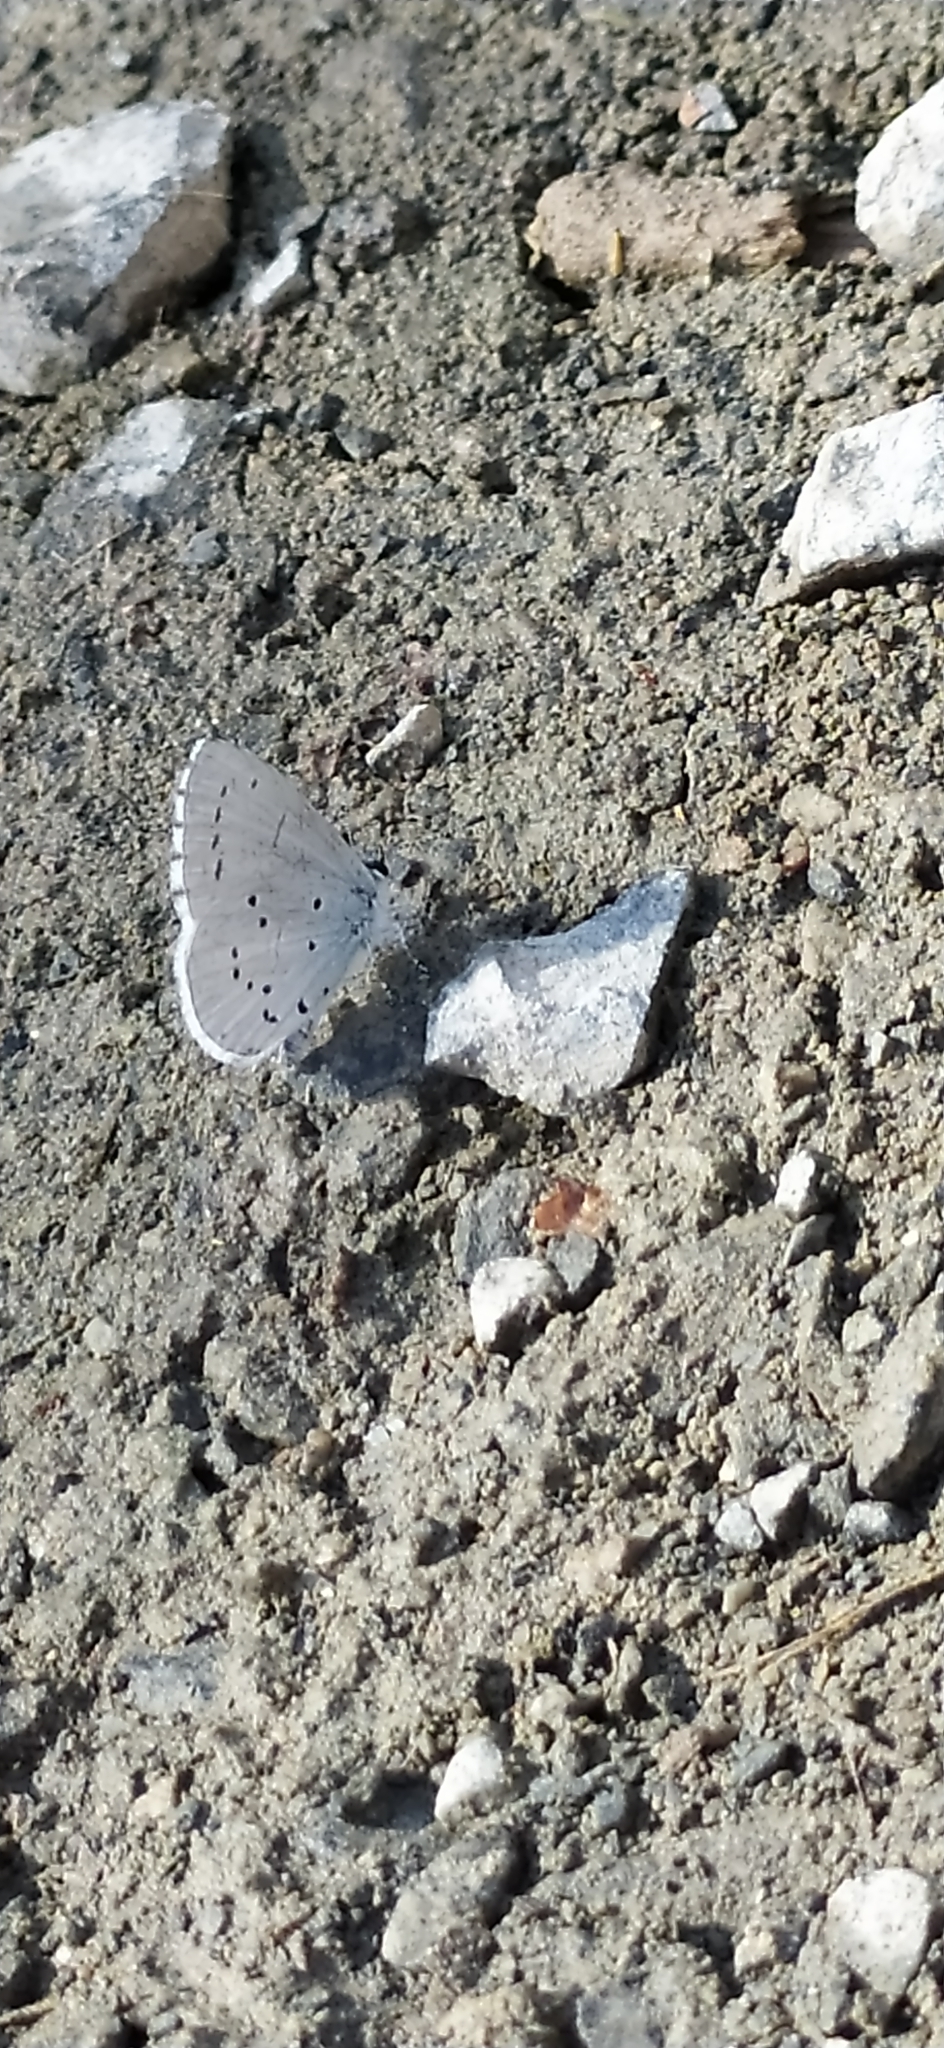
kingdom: Animalia
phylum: Arthropoda
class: Insecta
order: Lepidoptera
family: Lycaenidae
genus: Celastrina
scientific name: Celastrina argiolus
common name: Holly blue
